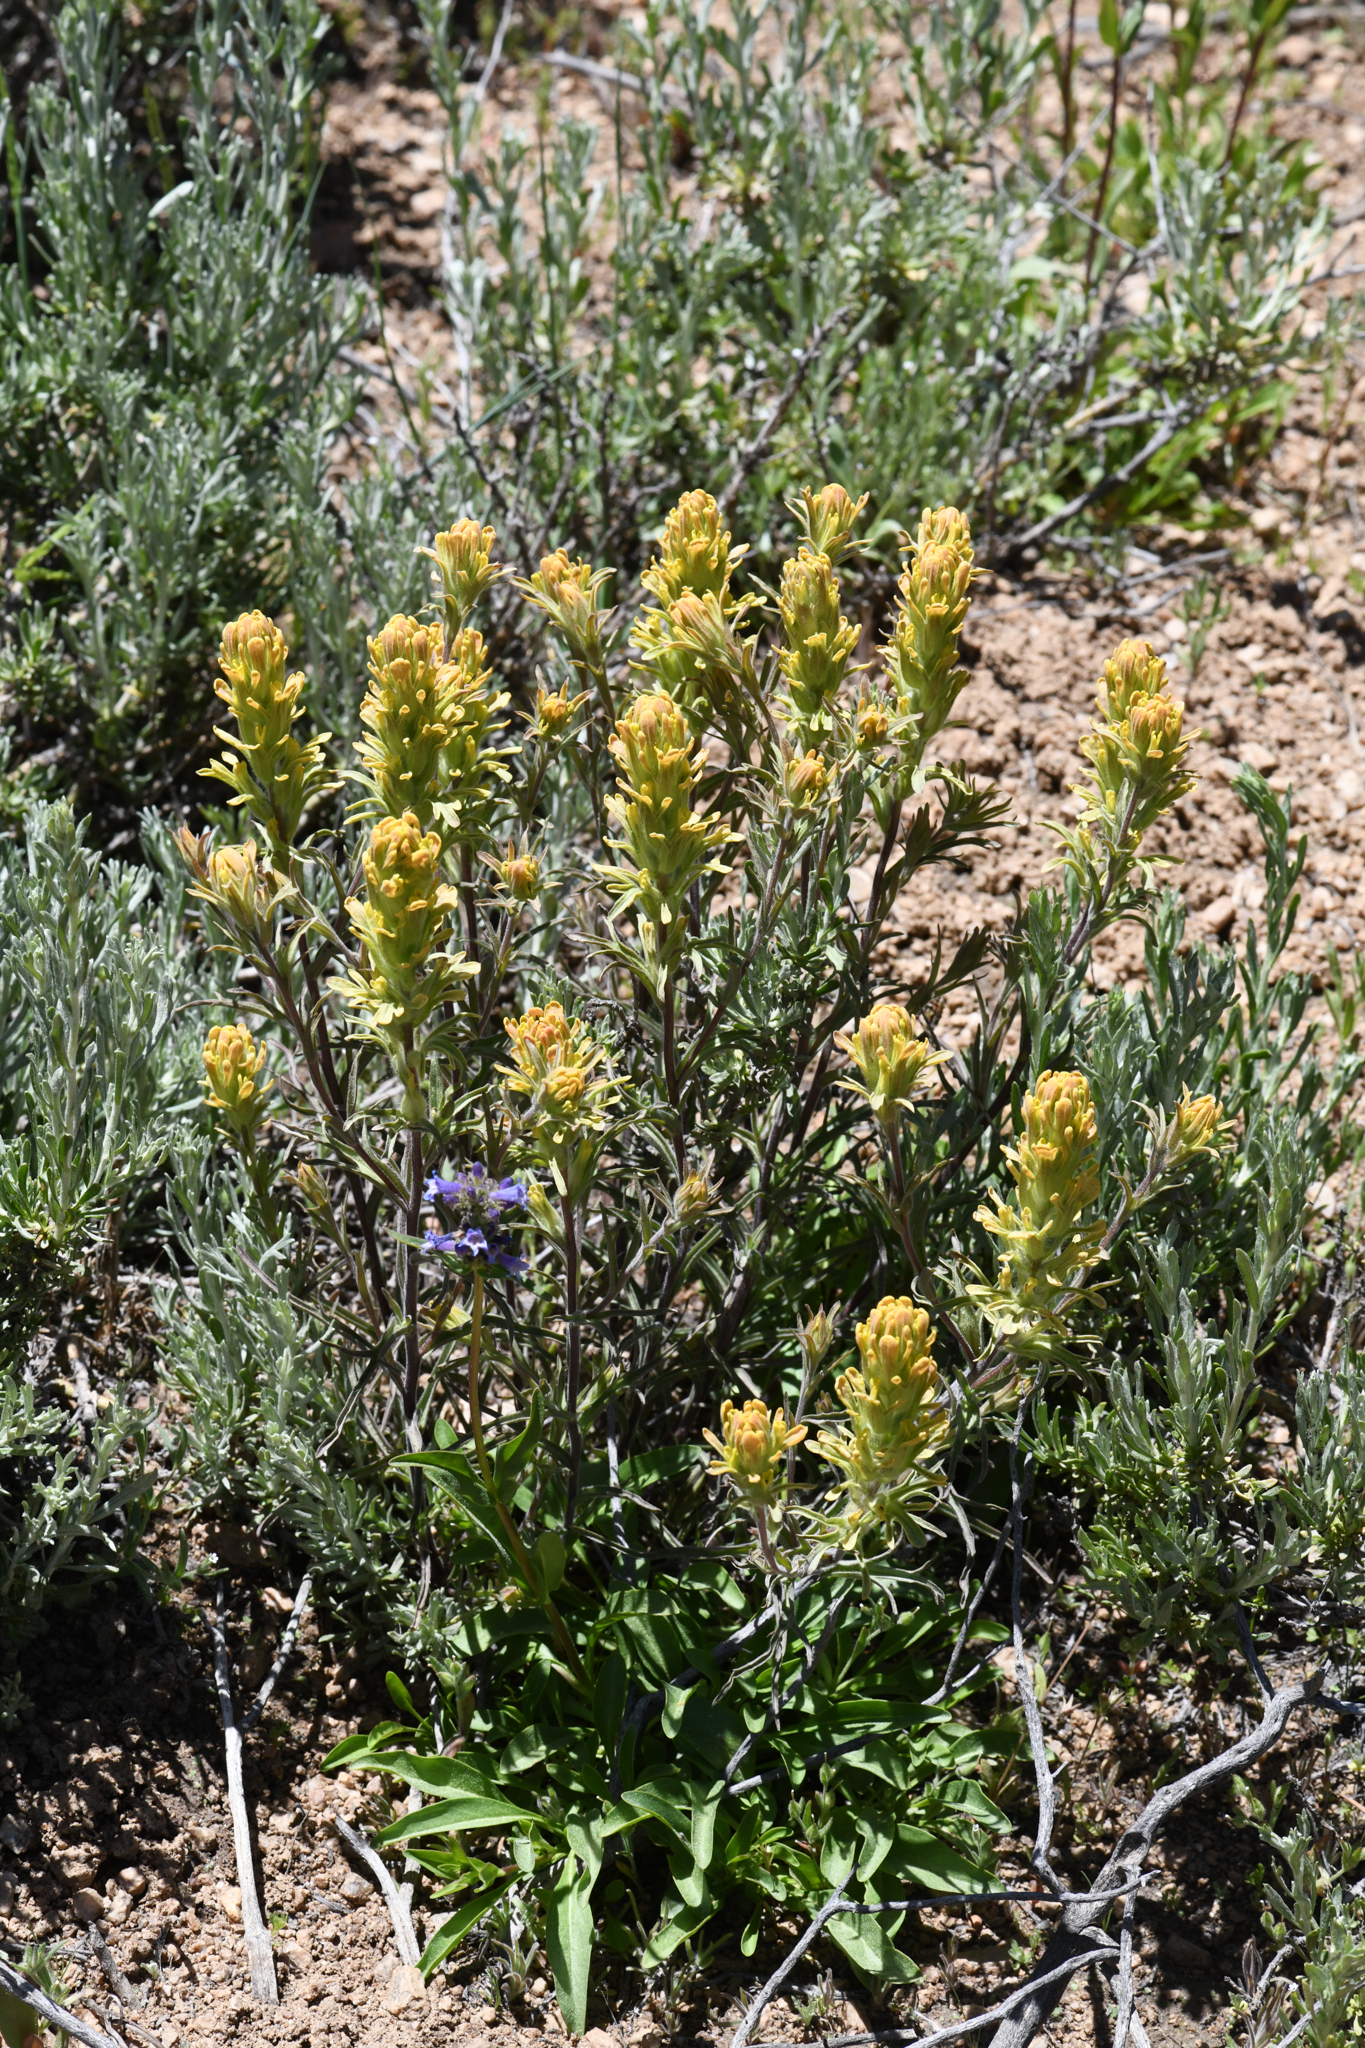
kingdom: Plantae
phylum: Tracheophyta
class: Magnoliopsida
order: Lamiales
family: Orobanchaceae
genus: Castilleja
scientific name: Castilleja praeterita
